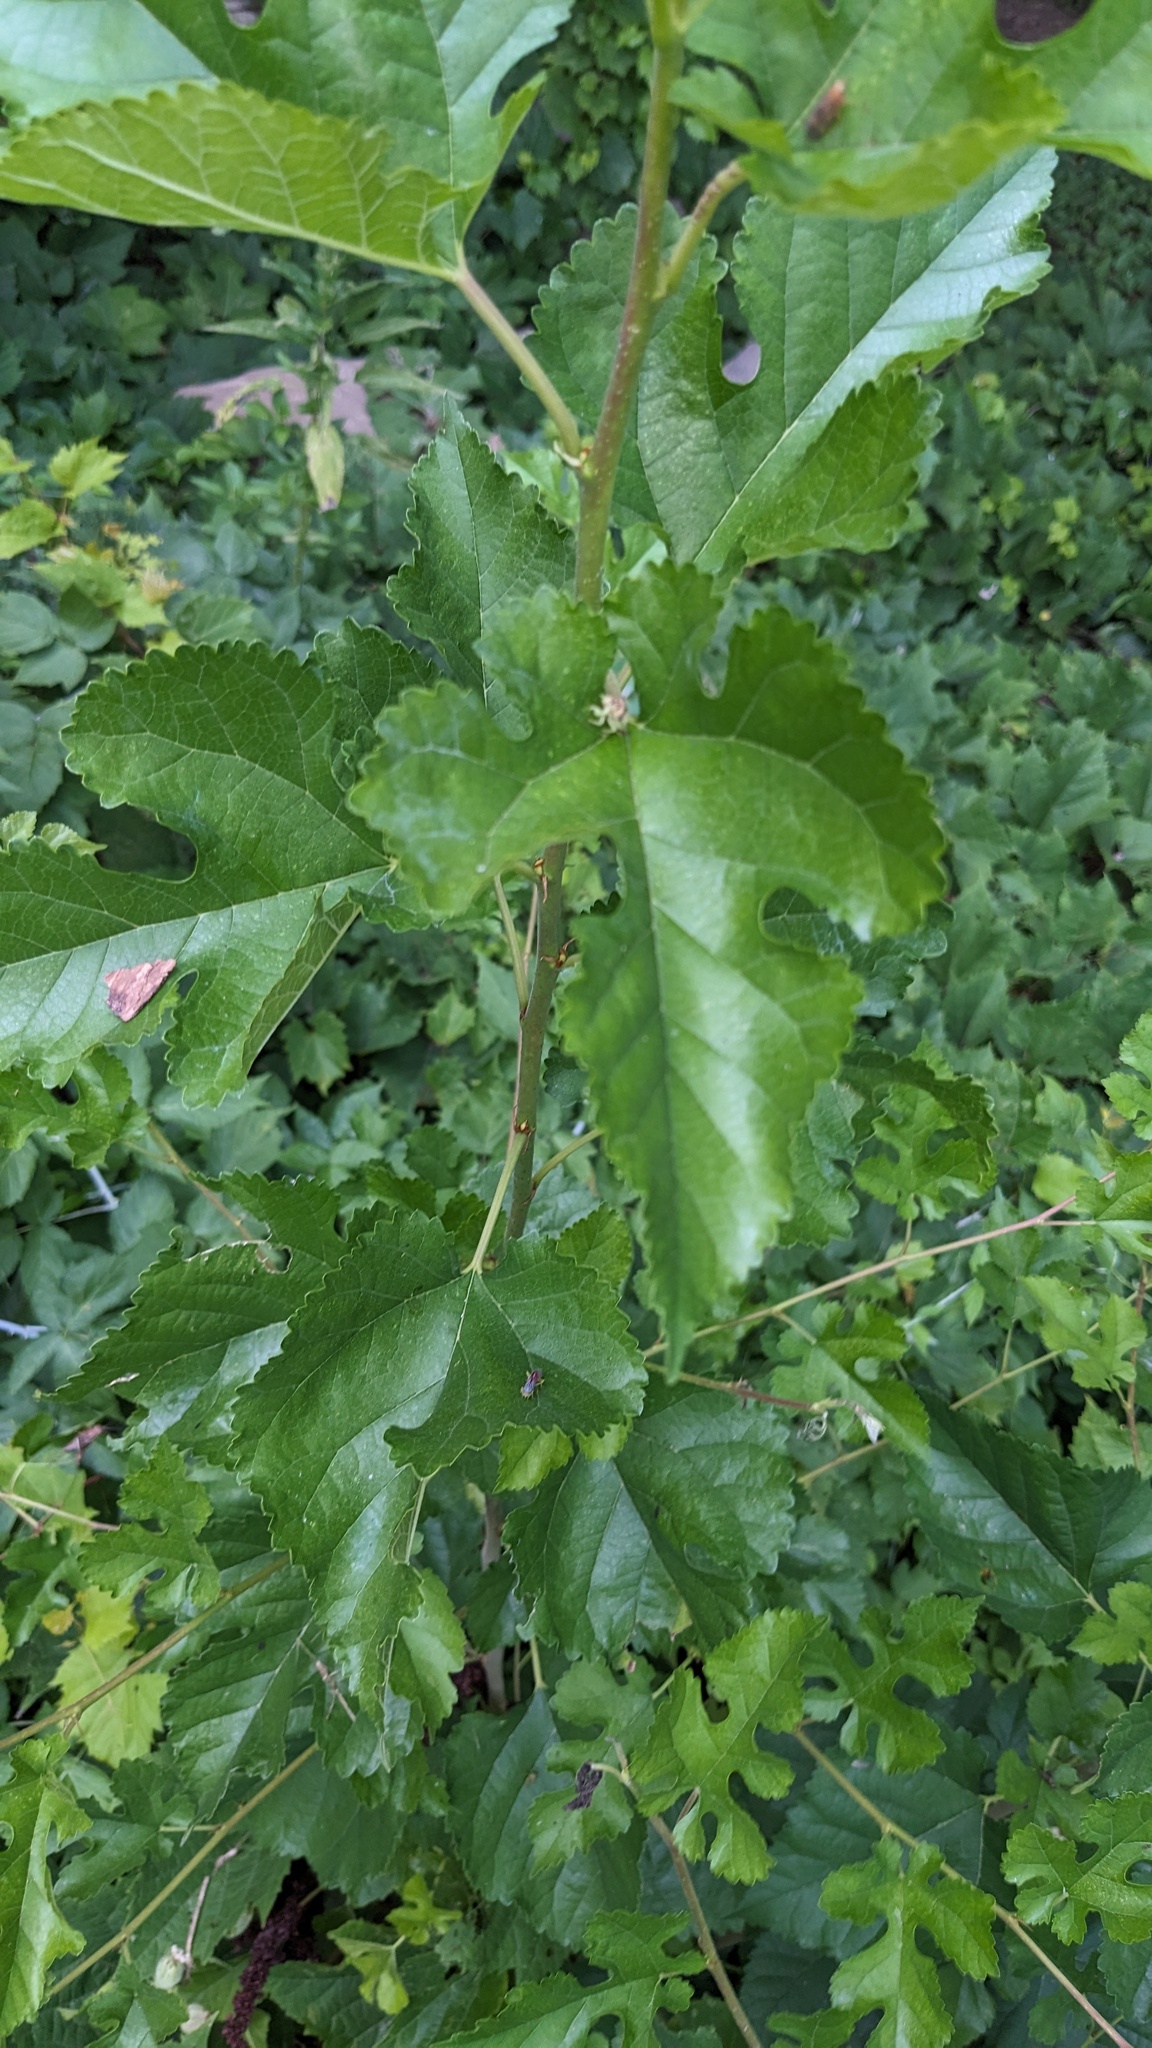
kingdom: Plantae
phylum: Tracheophyta
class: Magnoliopsida
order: Rosales
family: Moraceae
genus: Morus
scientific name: Morus alba
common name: White mulberry
